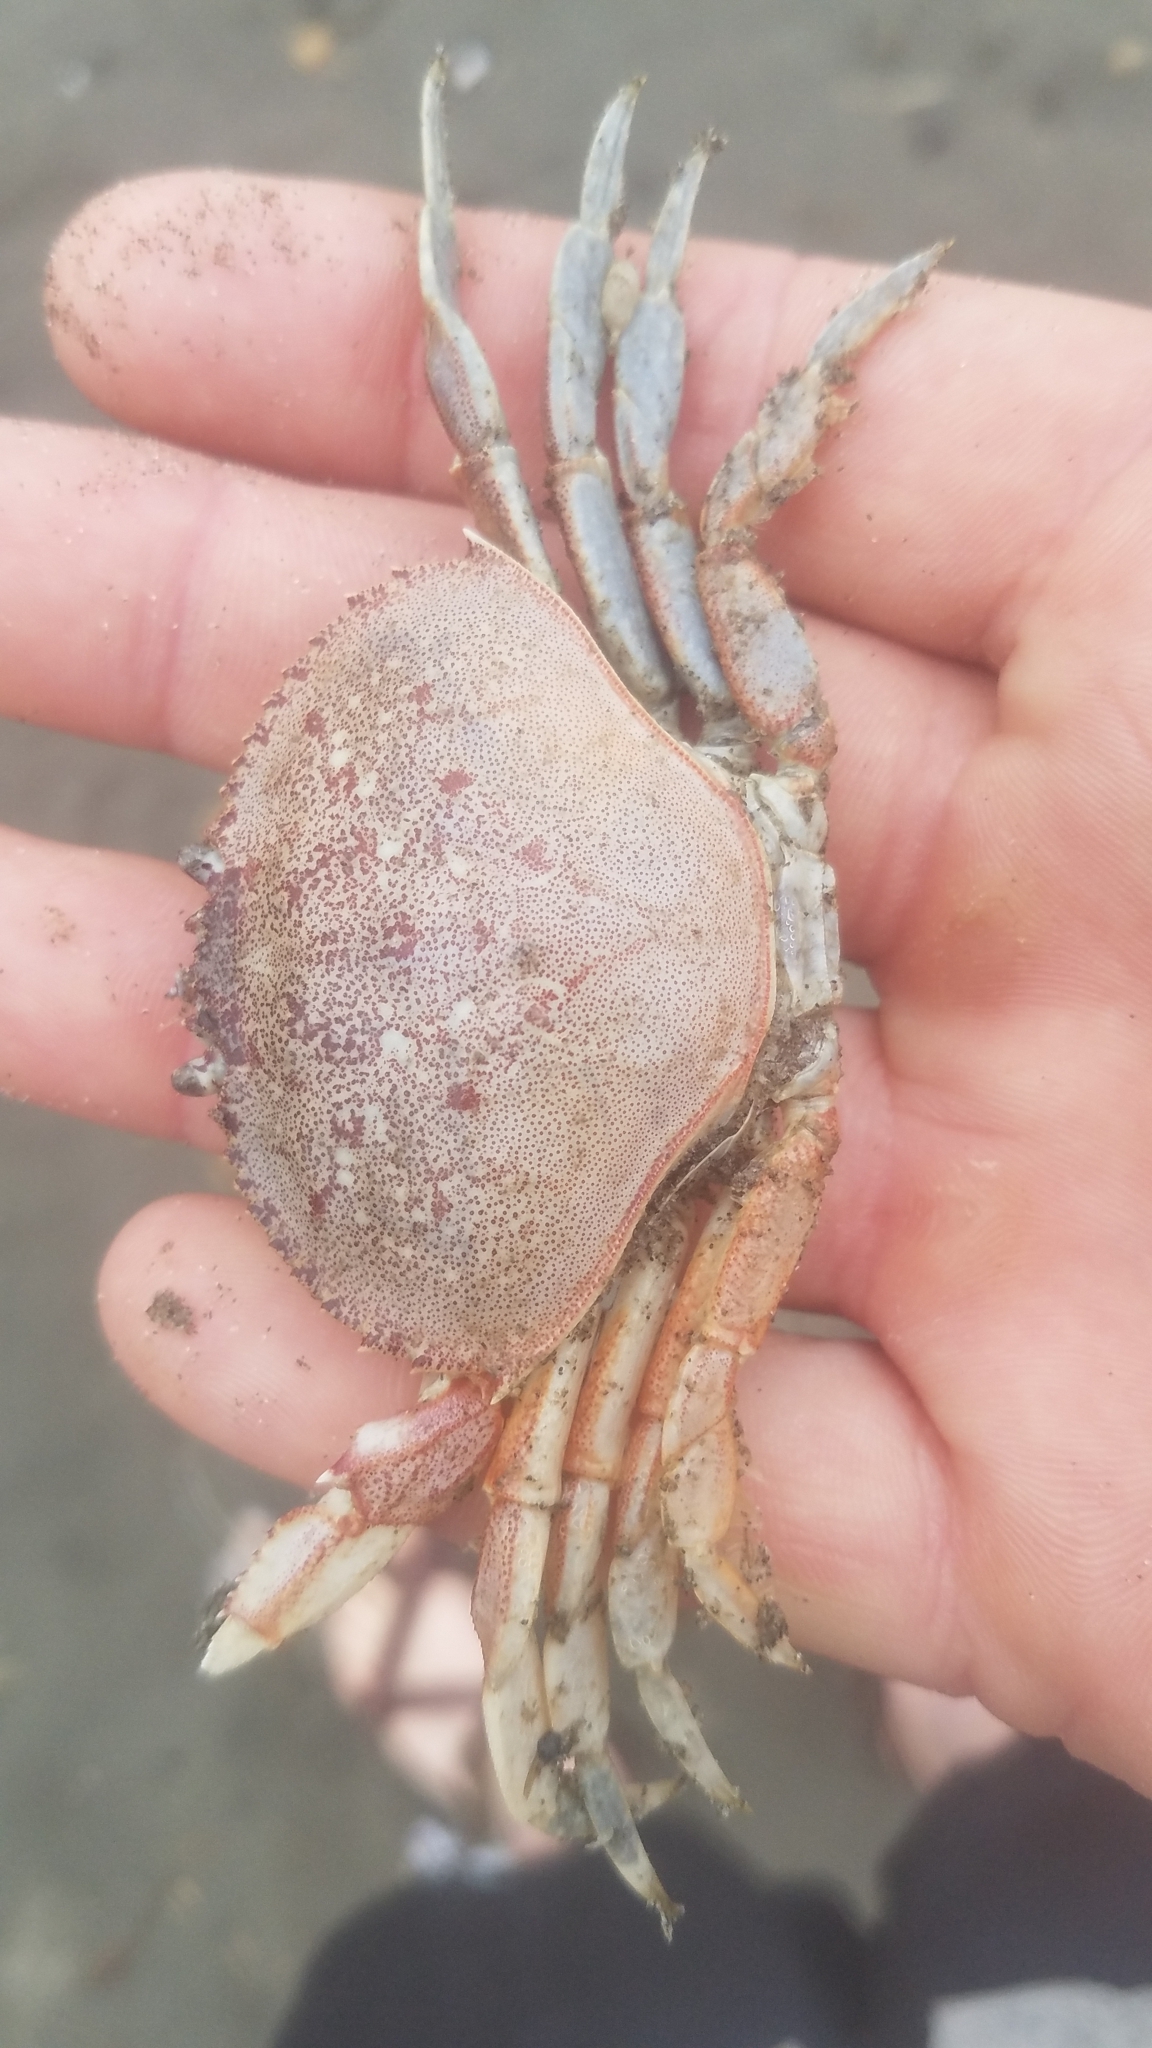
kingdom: Animalia
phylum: Arthropoda
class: Malacostraca
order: Decapoda
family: Cancridae
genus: Metacarcinus
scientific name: Metacarcinus magister
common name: Californian crab
